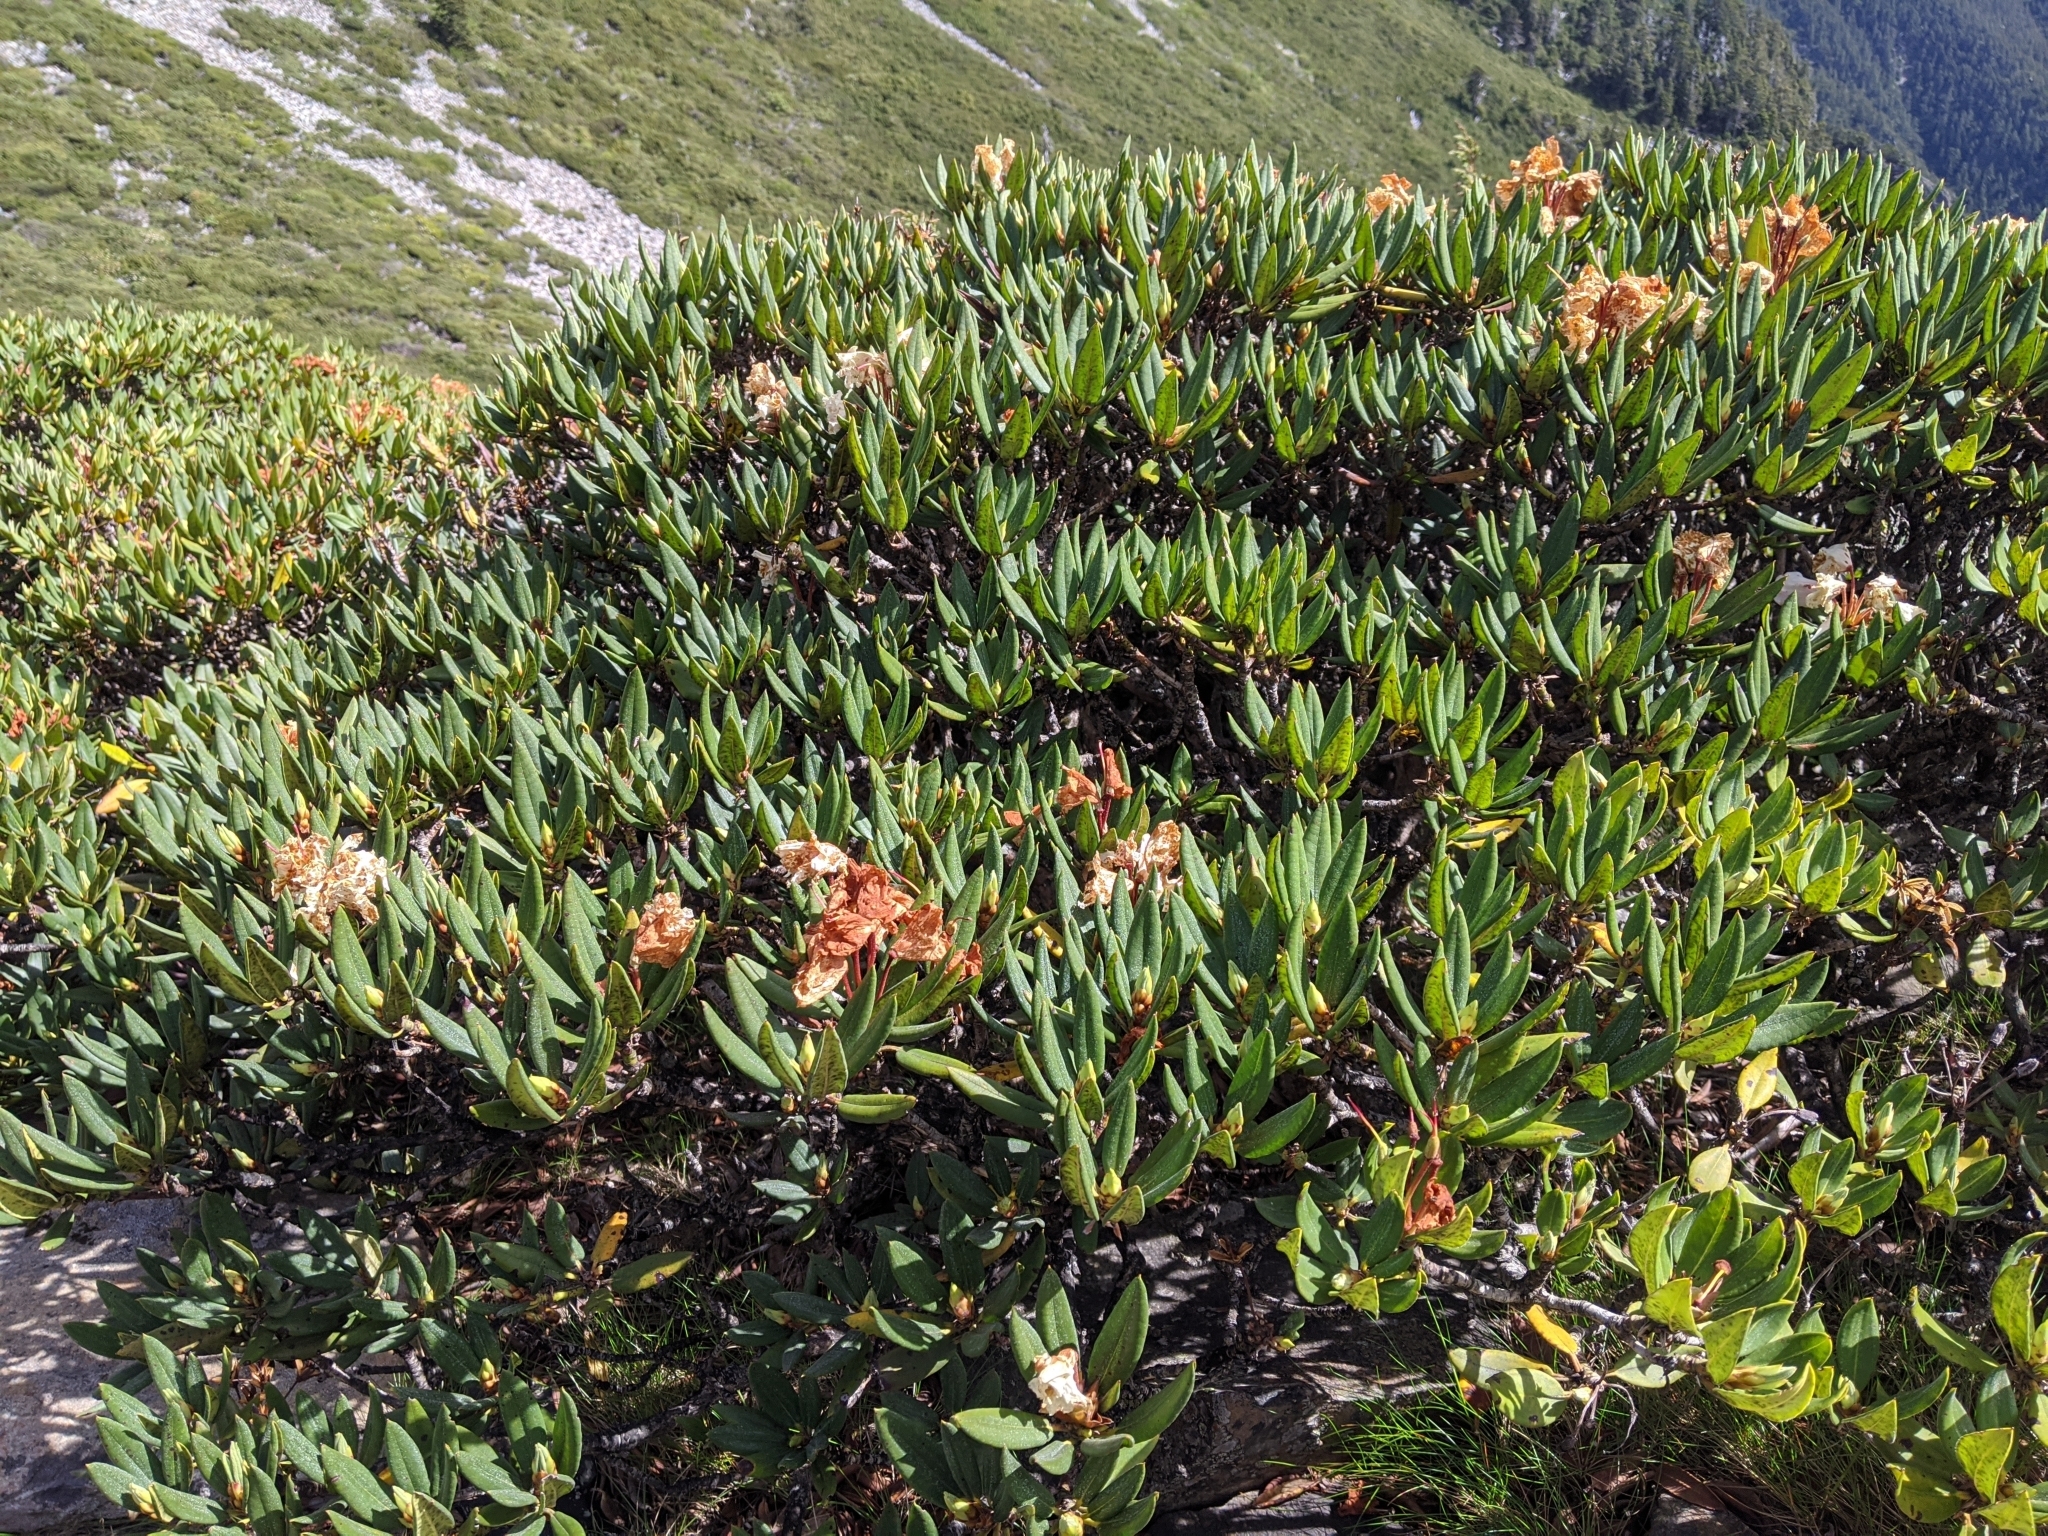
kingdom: Plantae
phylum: Tracheophyta
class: Magnoliopsida
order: Ericales
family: Ericaceae
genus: Rhododendron
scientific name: Rhododendron pseudochrysanthum
